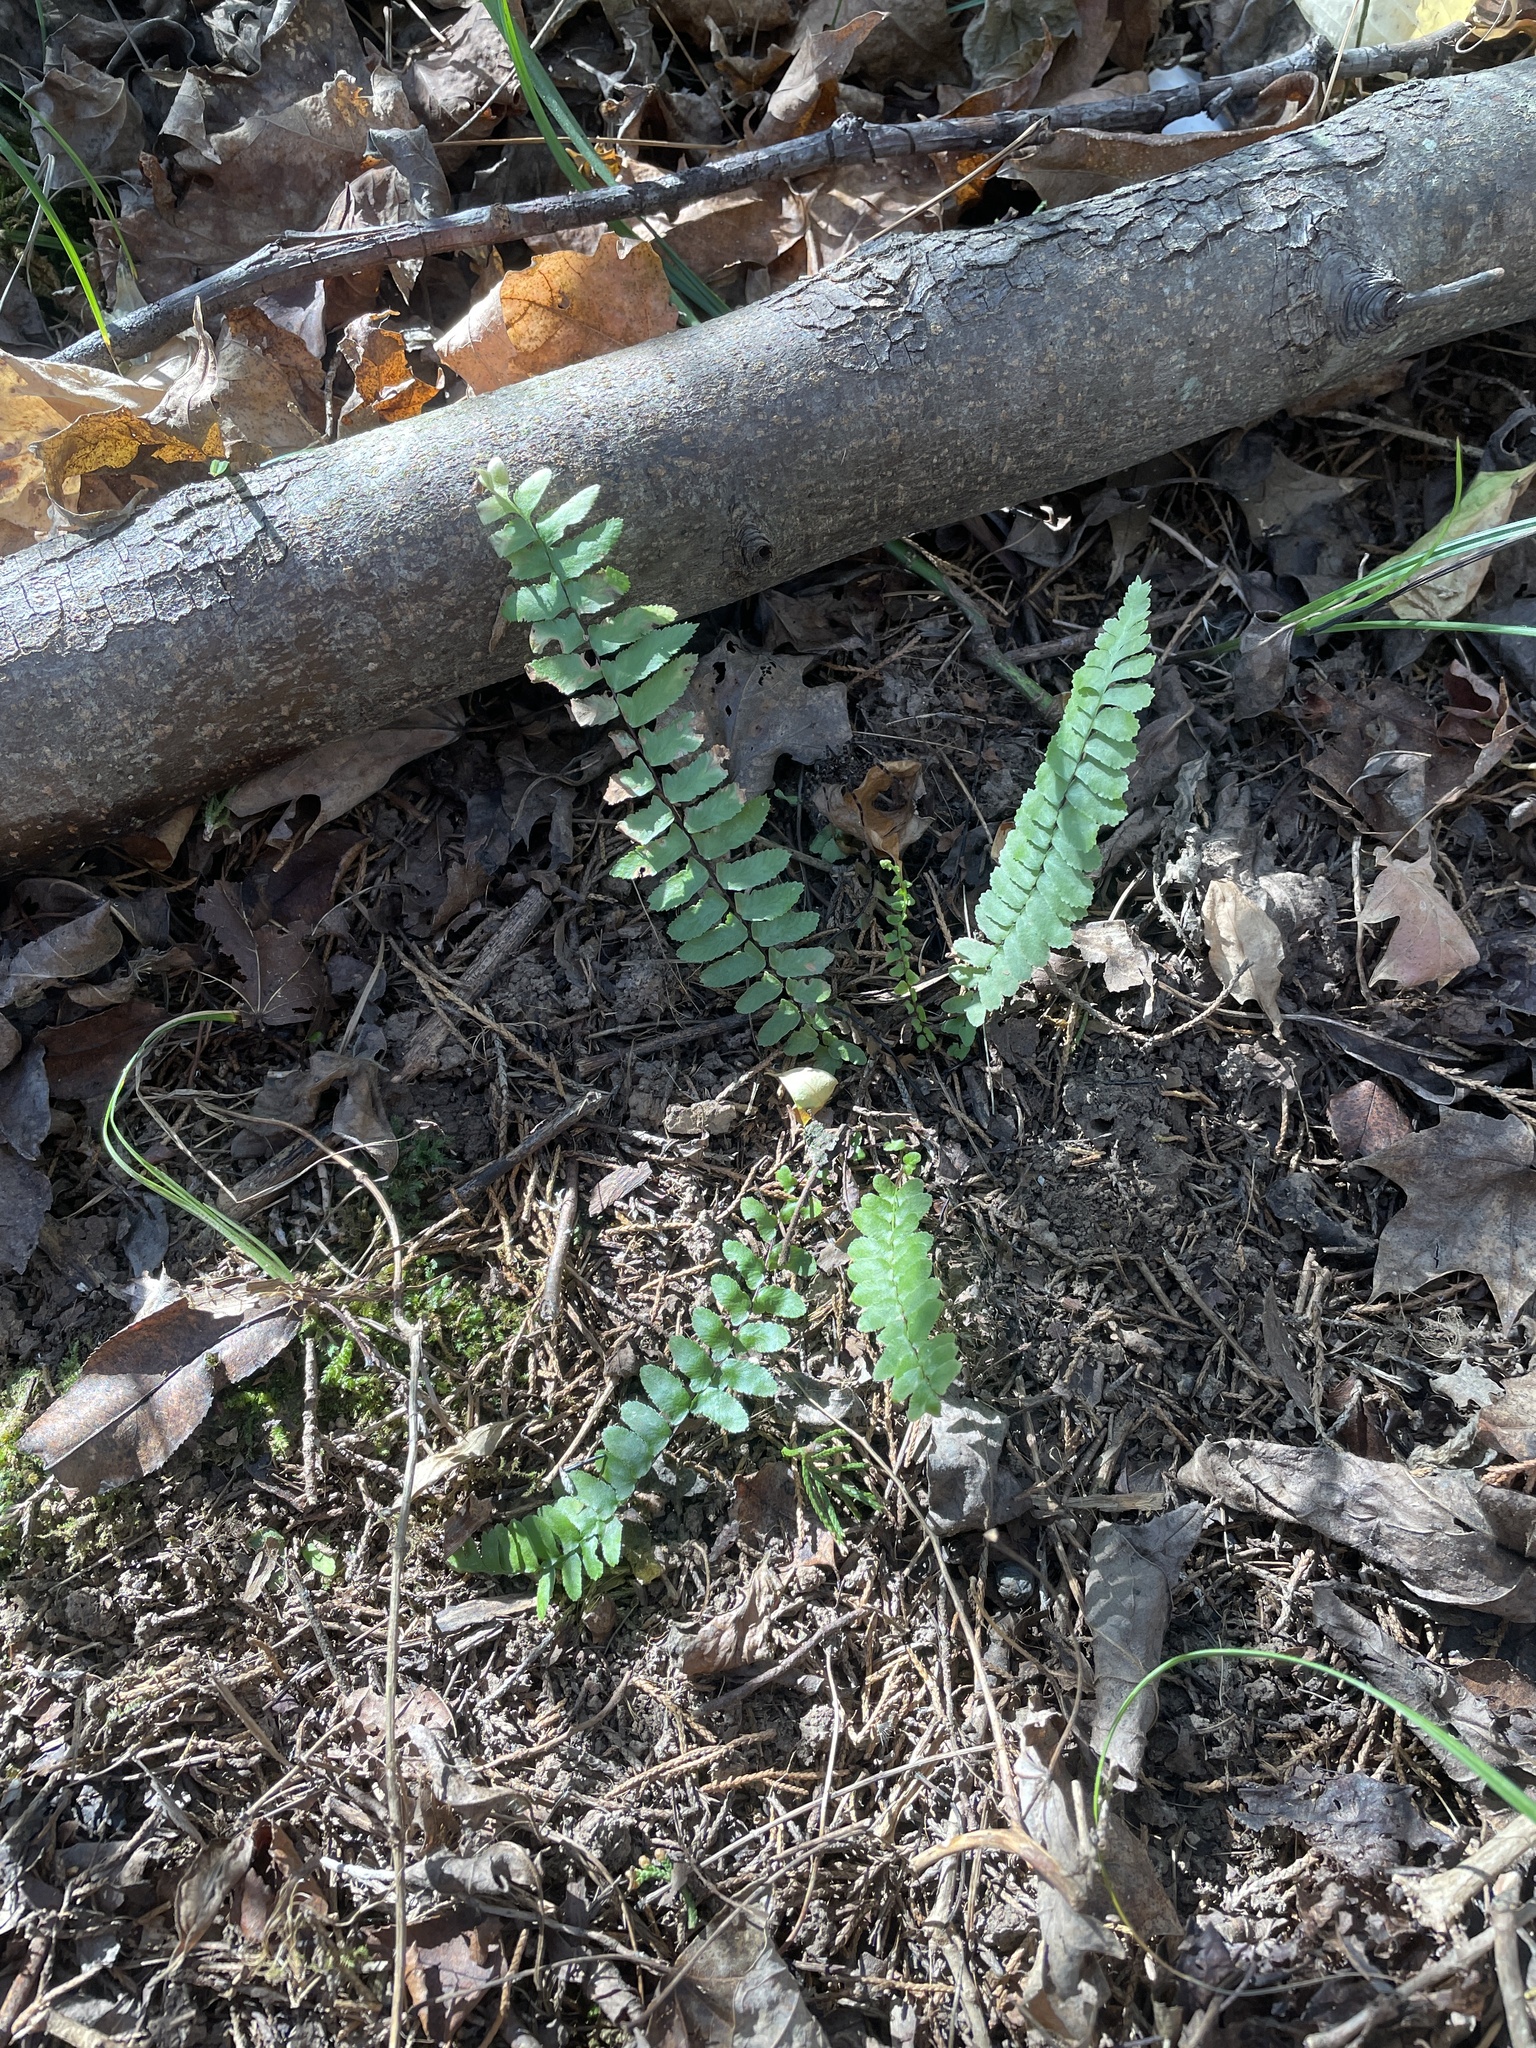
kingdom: Plantae
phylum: Tracheophyta
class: Polypodiopsida
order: Polypodiales
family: Aspleniaceae
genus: Asplenium
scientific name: Asplenium platyneuron
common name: Ebony spleenwort
